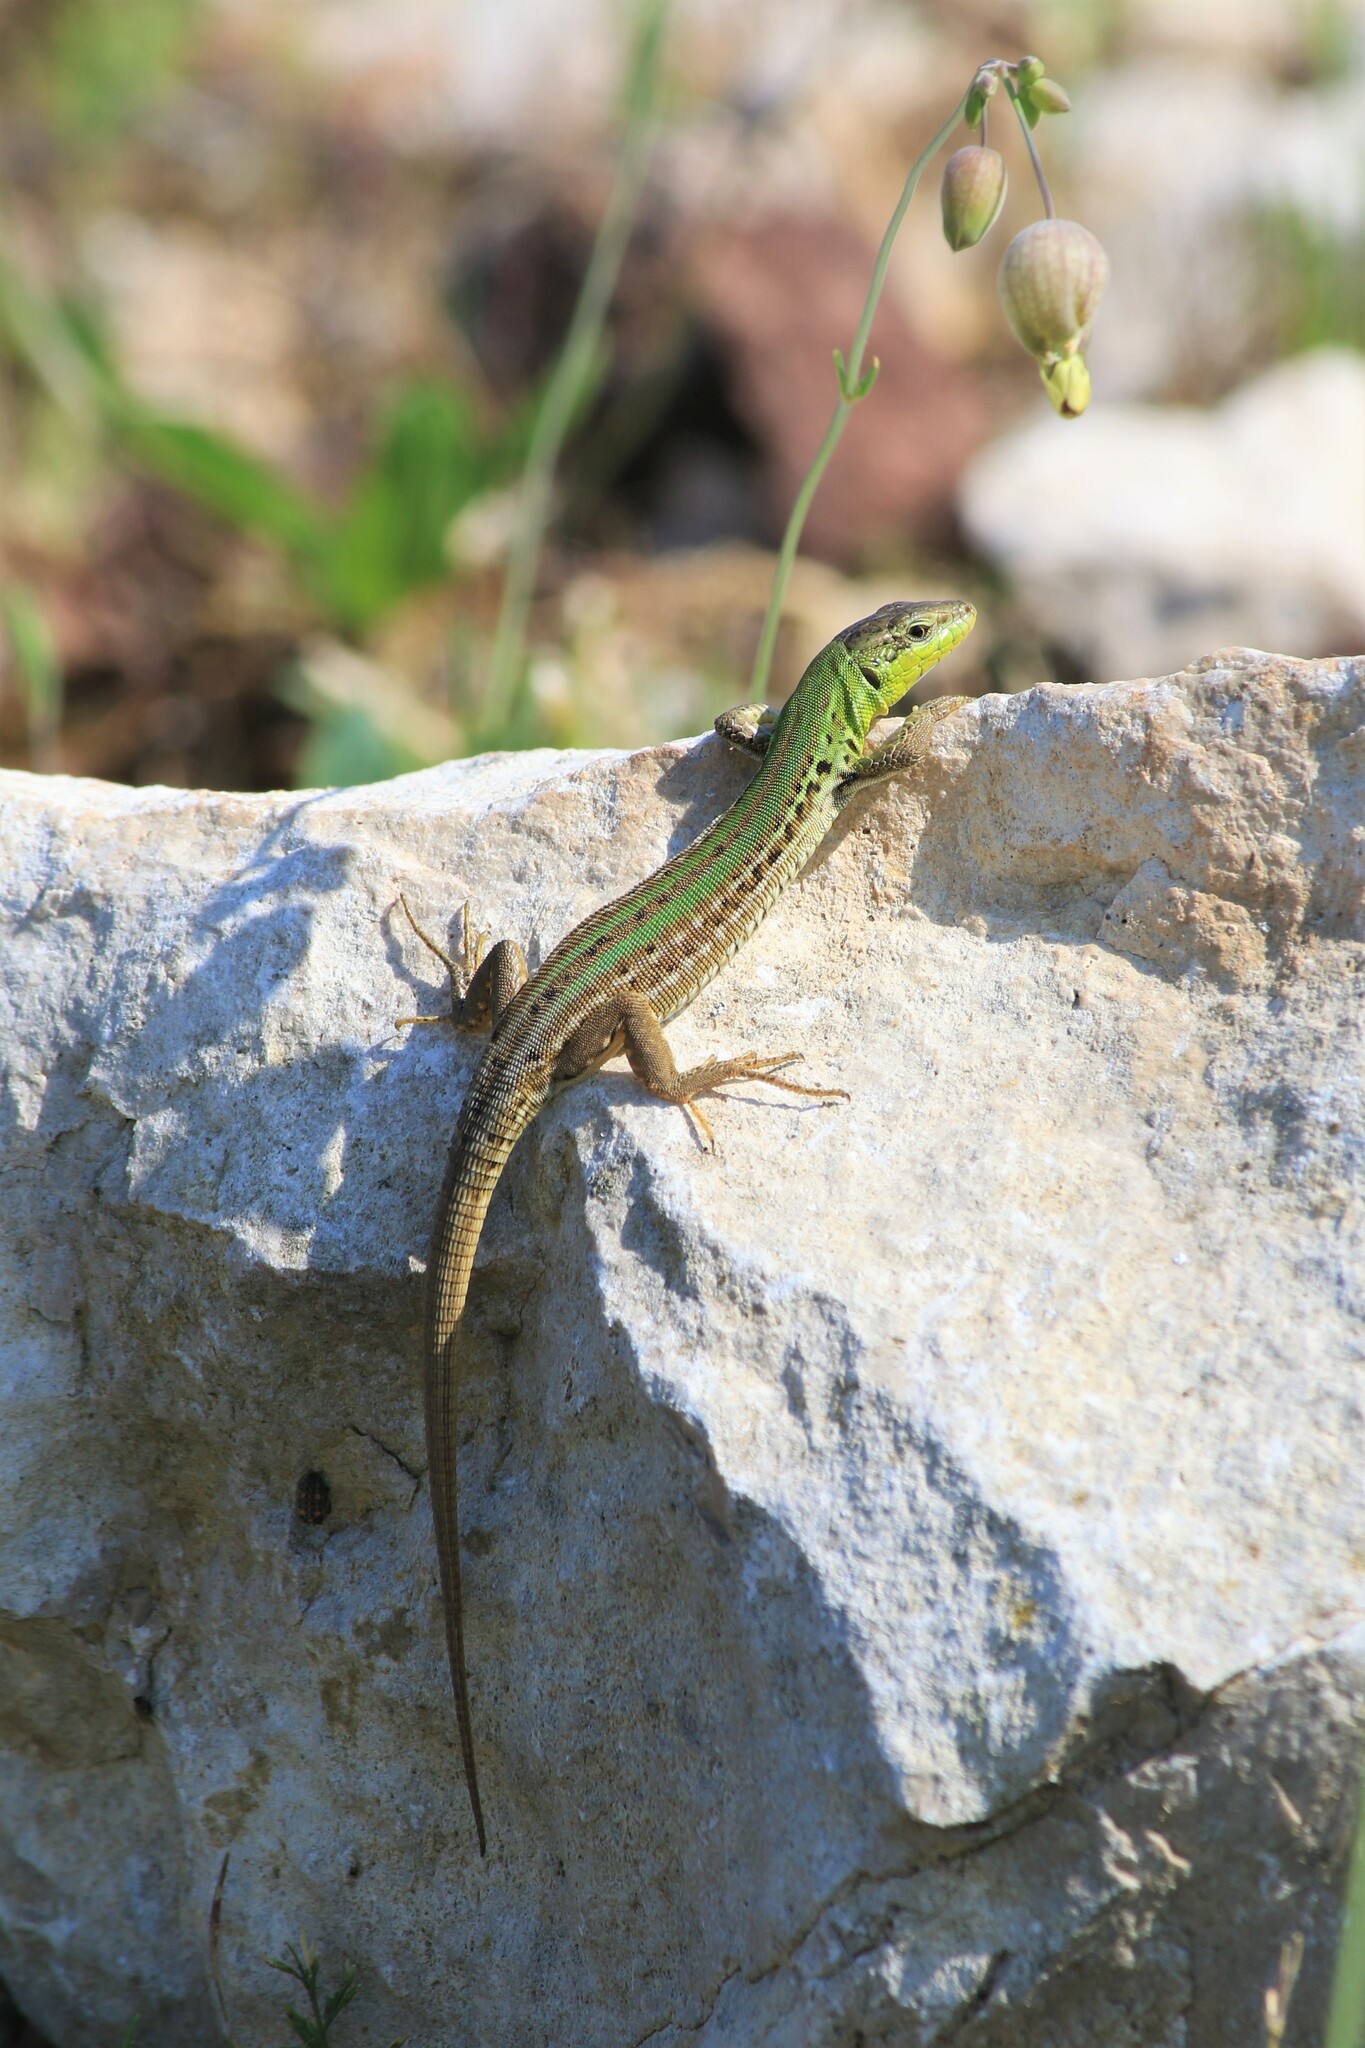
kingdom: Animalia
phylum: Chordata
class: Squamata
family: Lacertidae
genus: Podarcis
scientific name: Podarcis siculus
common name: Italian wall lizard
